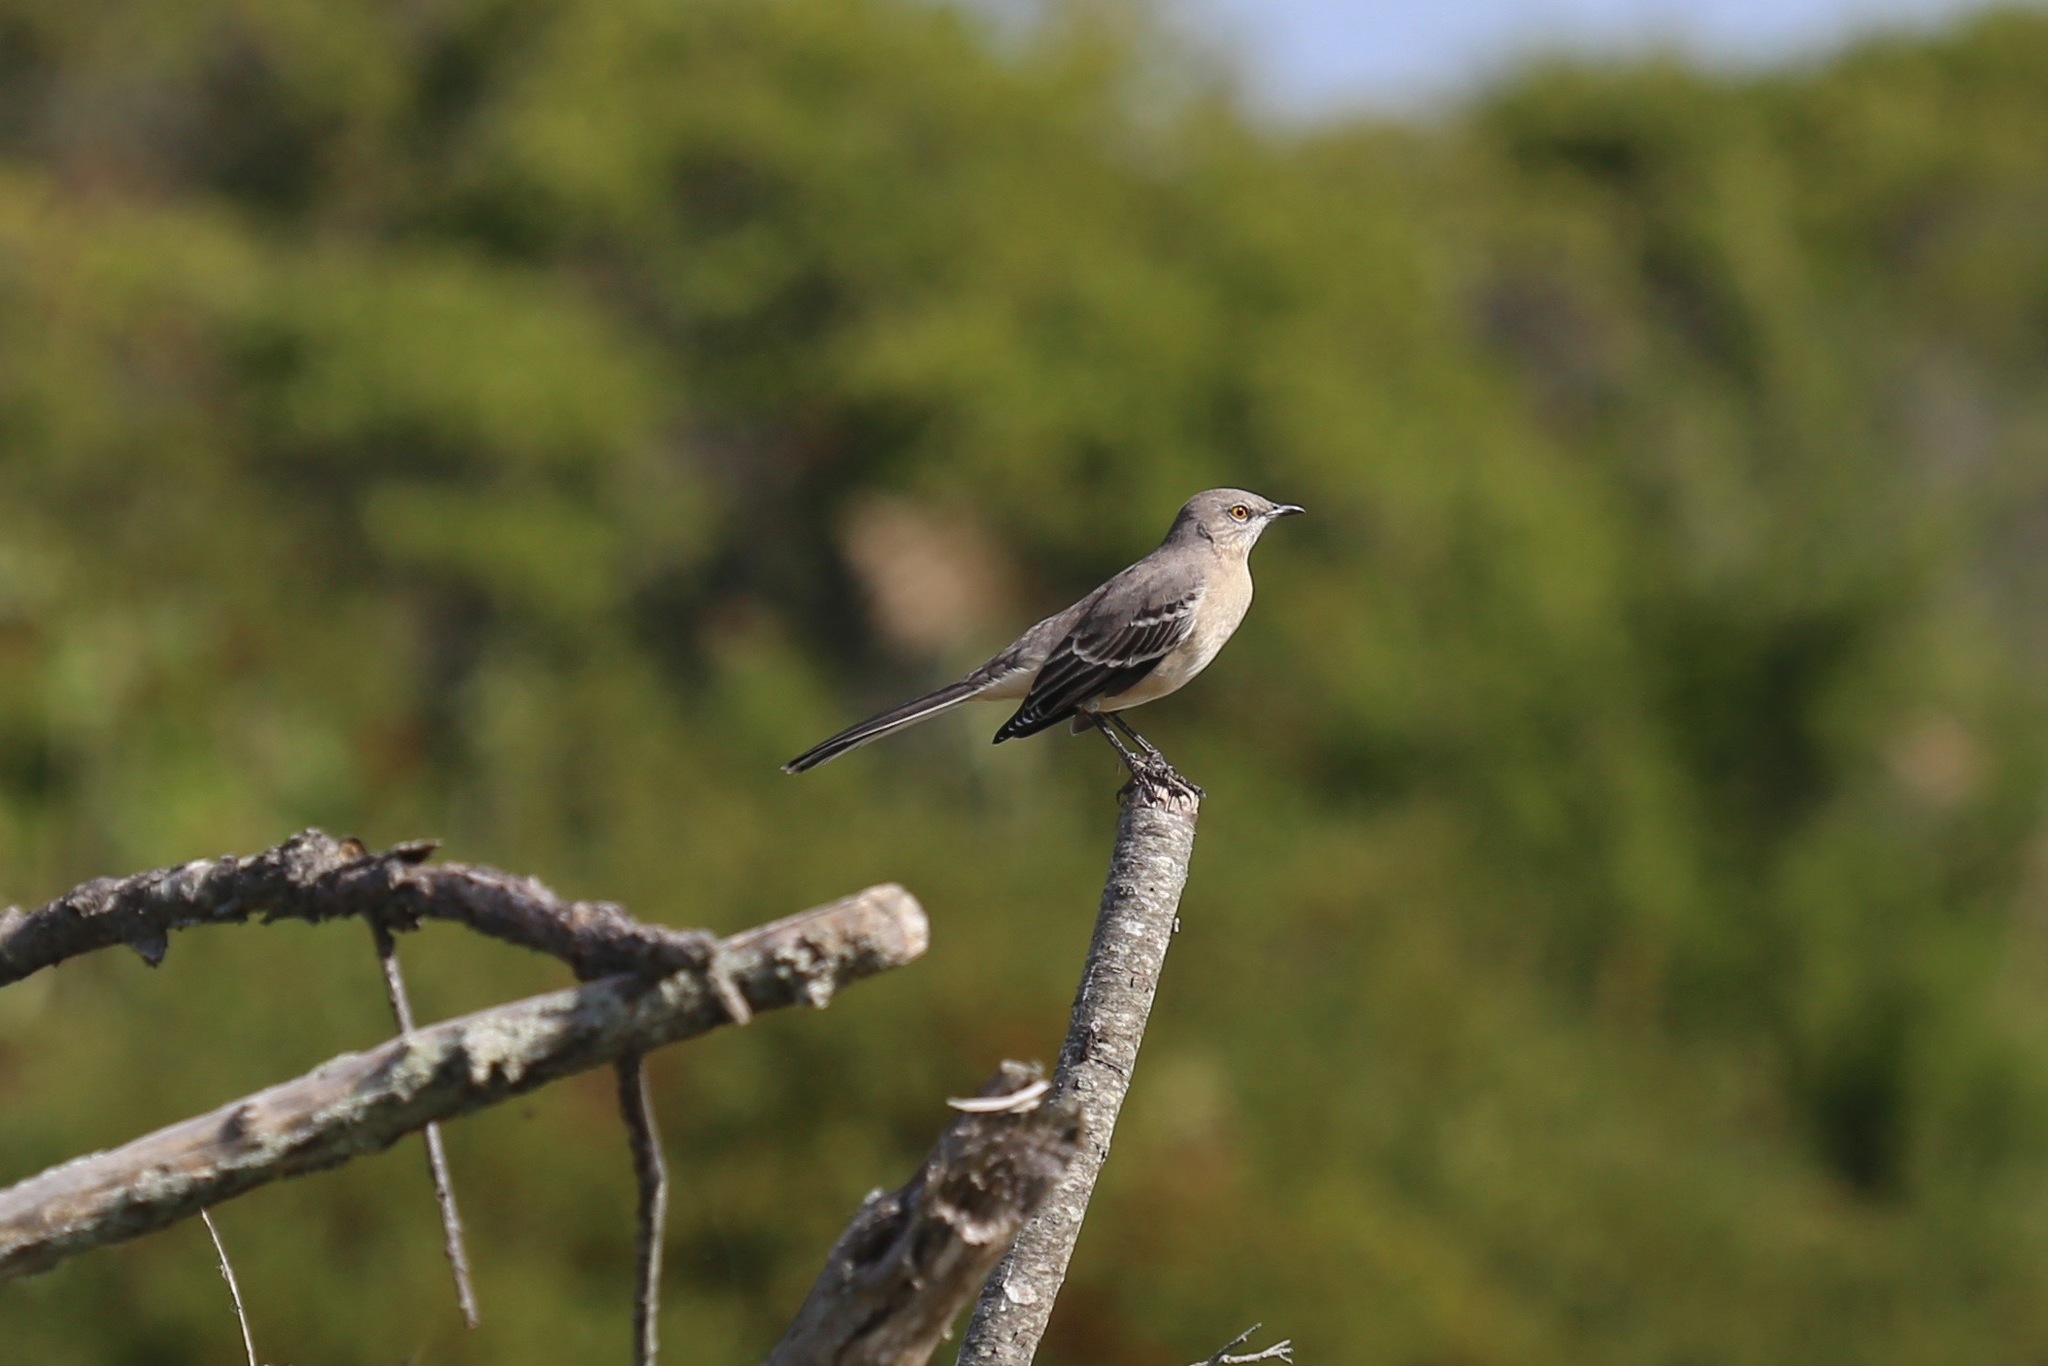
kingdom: Animalia
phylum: Chordata
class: Aves
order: Passeriformes
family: Mimidae
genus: Mimus
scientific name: Mimus polyglottos
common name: Northern mockingbird
